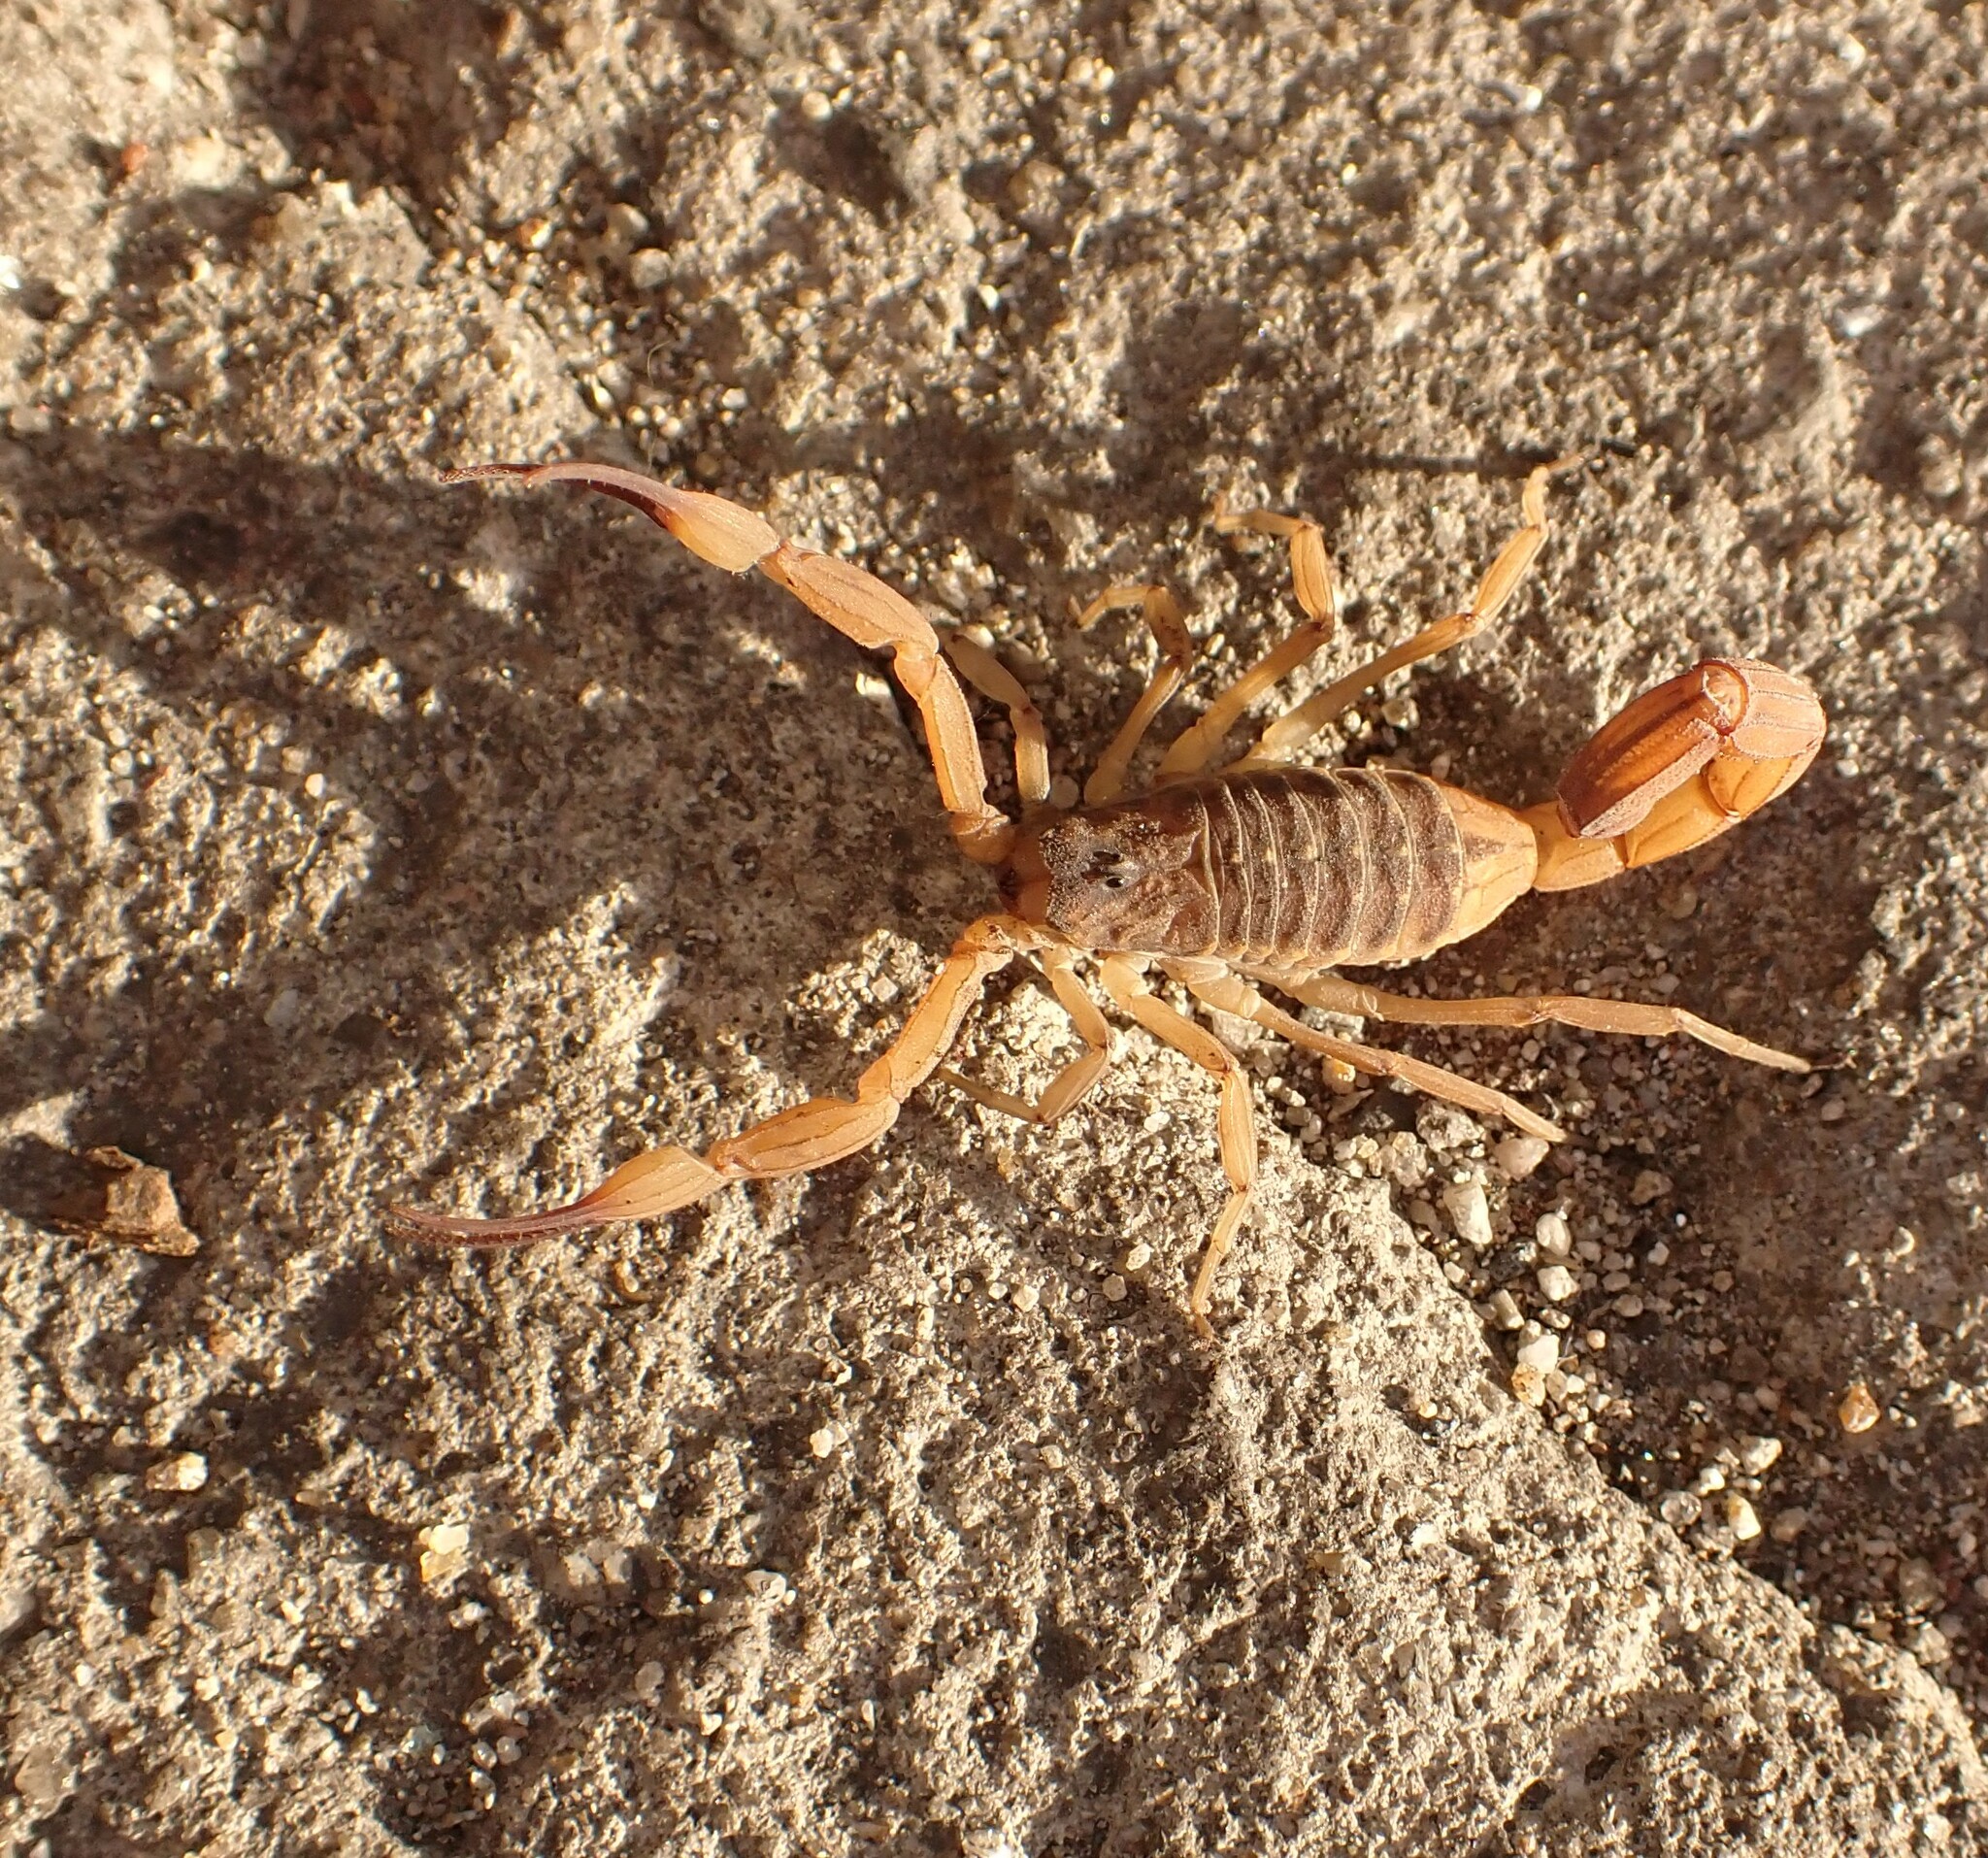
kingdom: Animalia
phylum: Arthropoda
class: Arachnida
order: Scorpiones
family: Buthidae
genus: Tityus
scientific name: Tityus serrulatus
